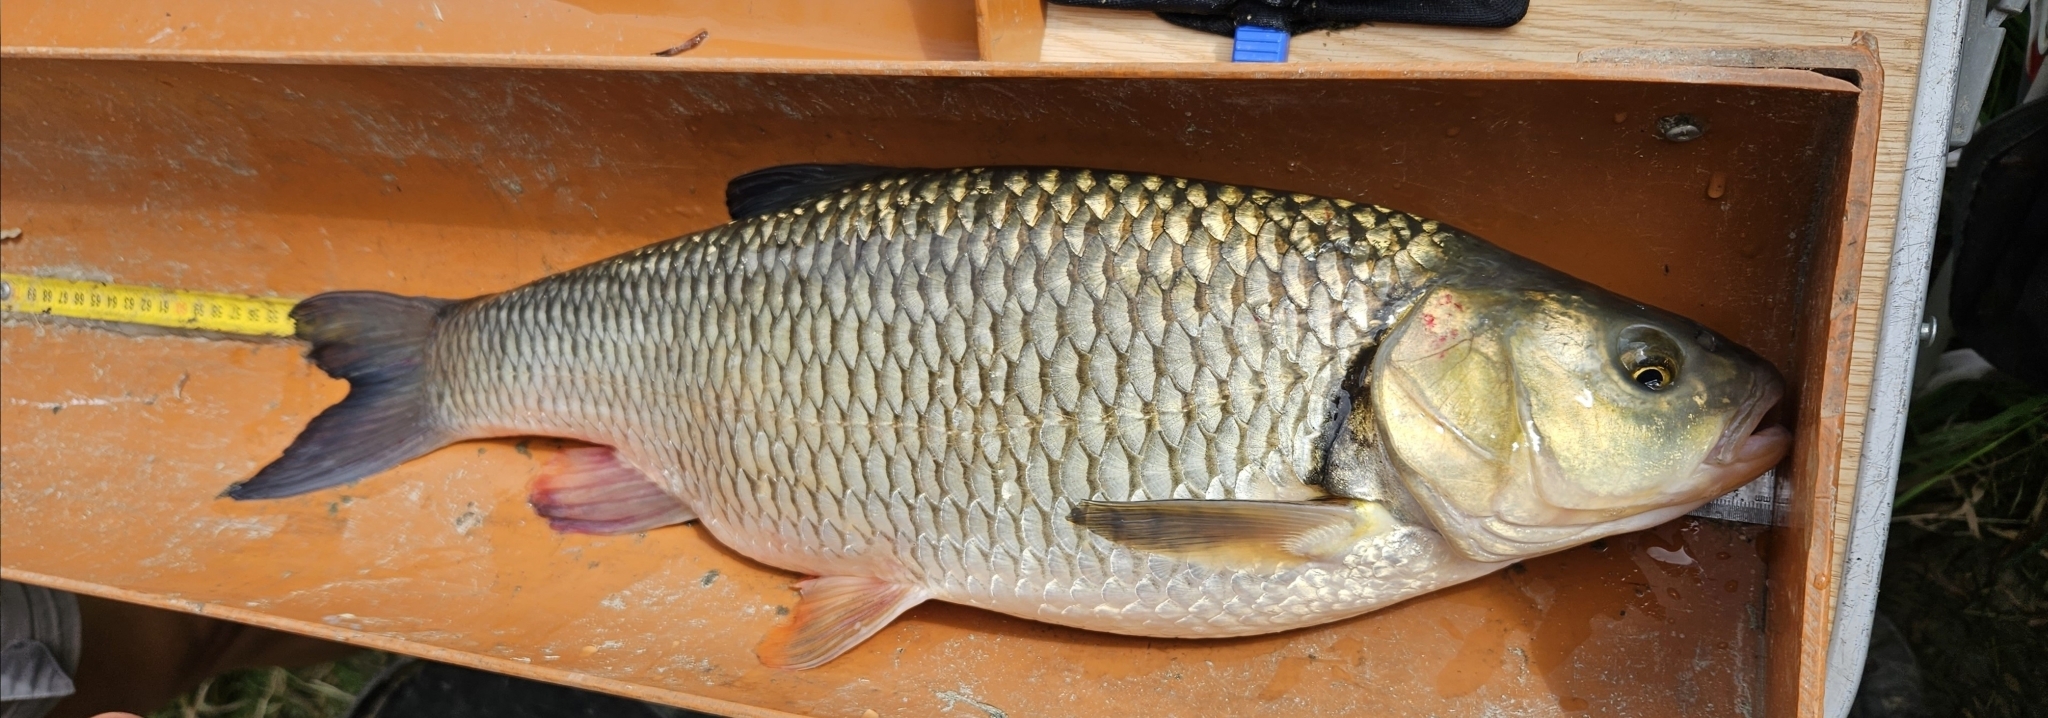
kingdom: Animalia
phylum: Chordata
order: Cypriniformes
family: Cyprinidae
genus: Squalius
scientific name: Squalius cephalus
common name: Chub
